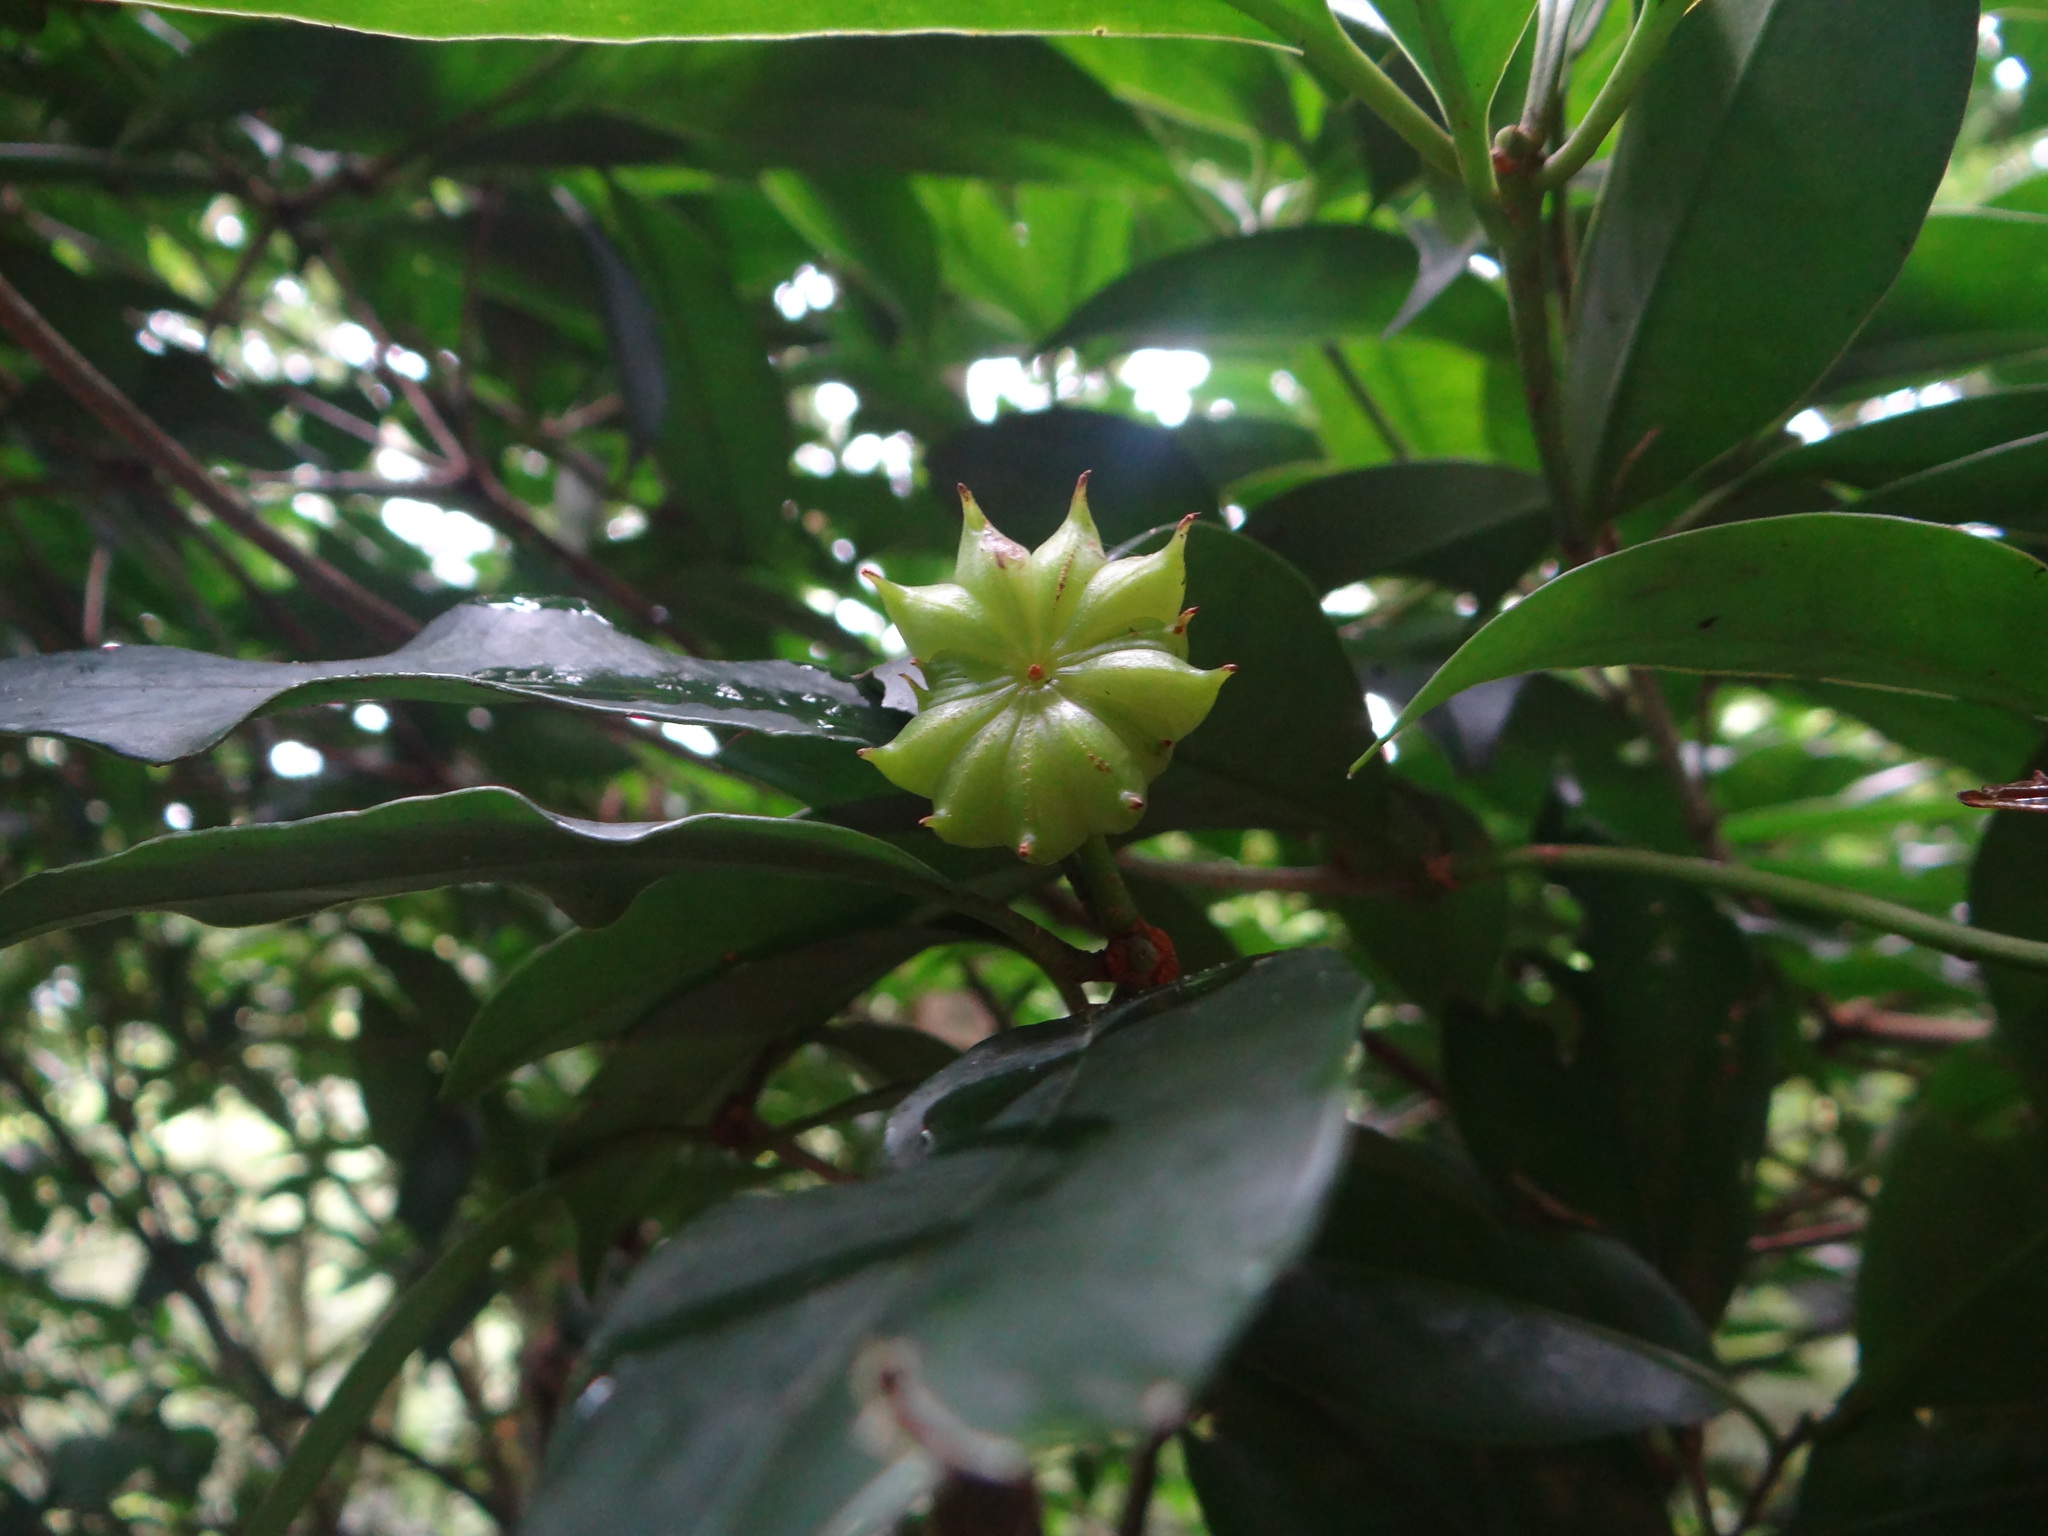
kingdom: Plantae
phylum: Tracheophyta
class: Magnoliopsida
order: Austrobaileyales
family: Schisandraceae
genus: Illicium
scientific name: Illicium arborescens
